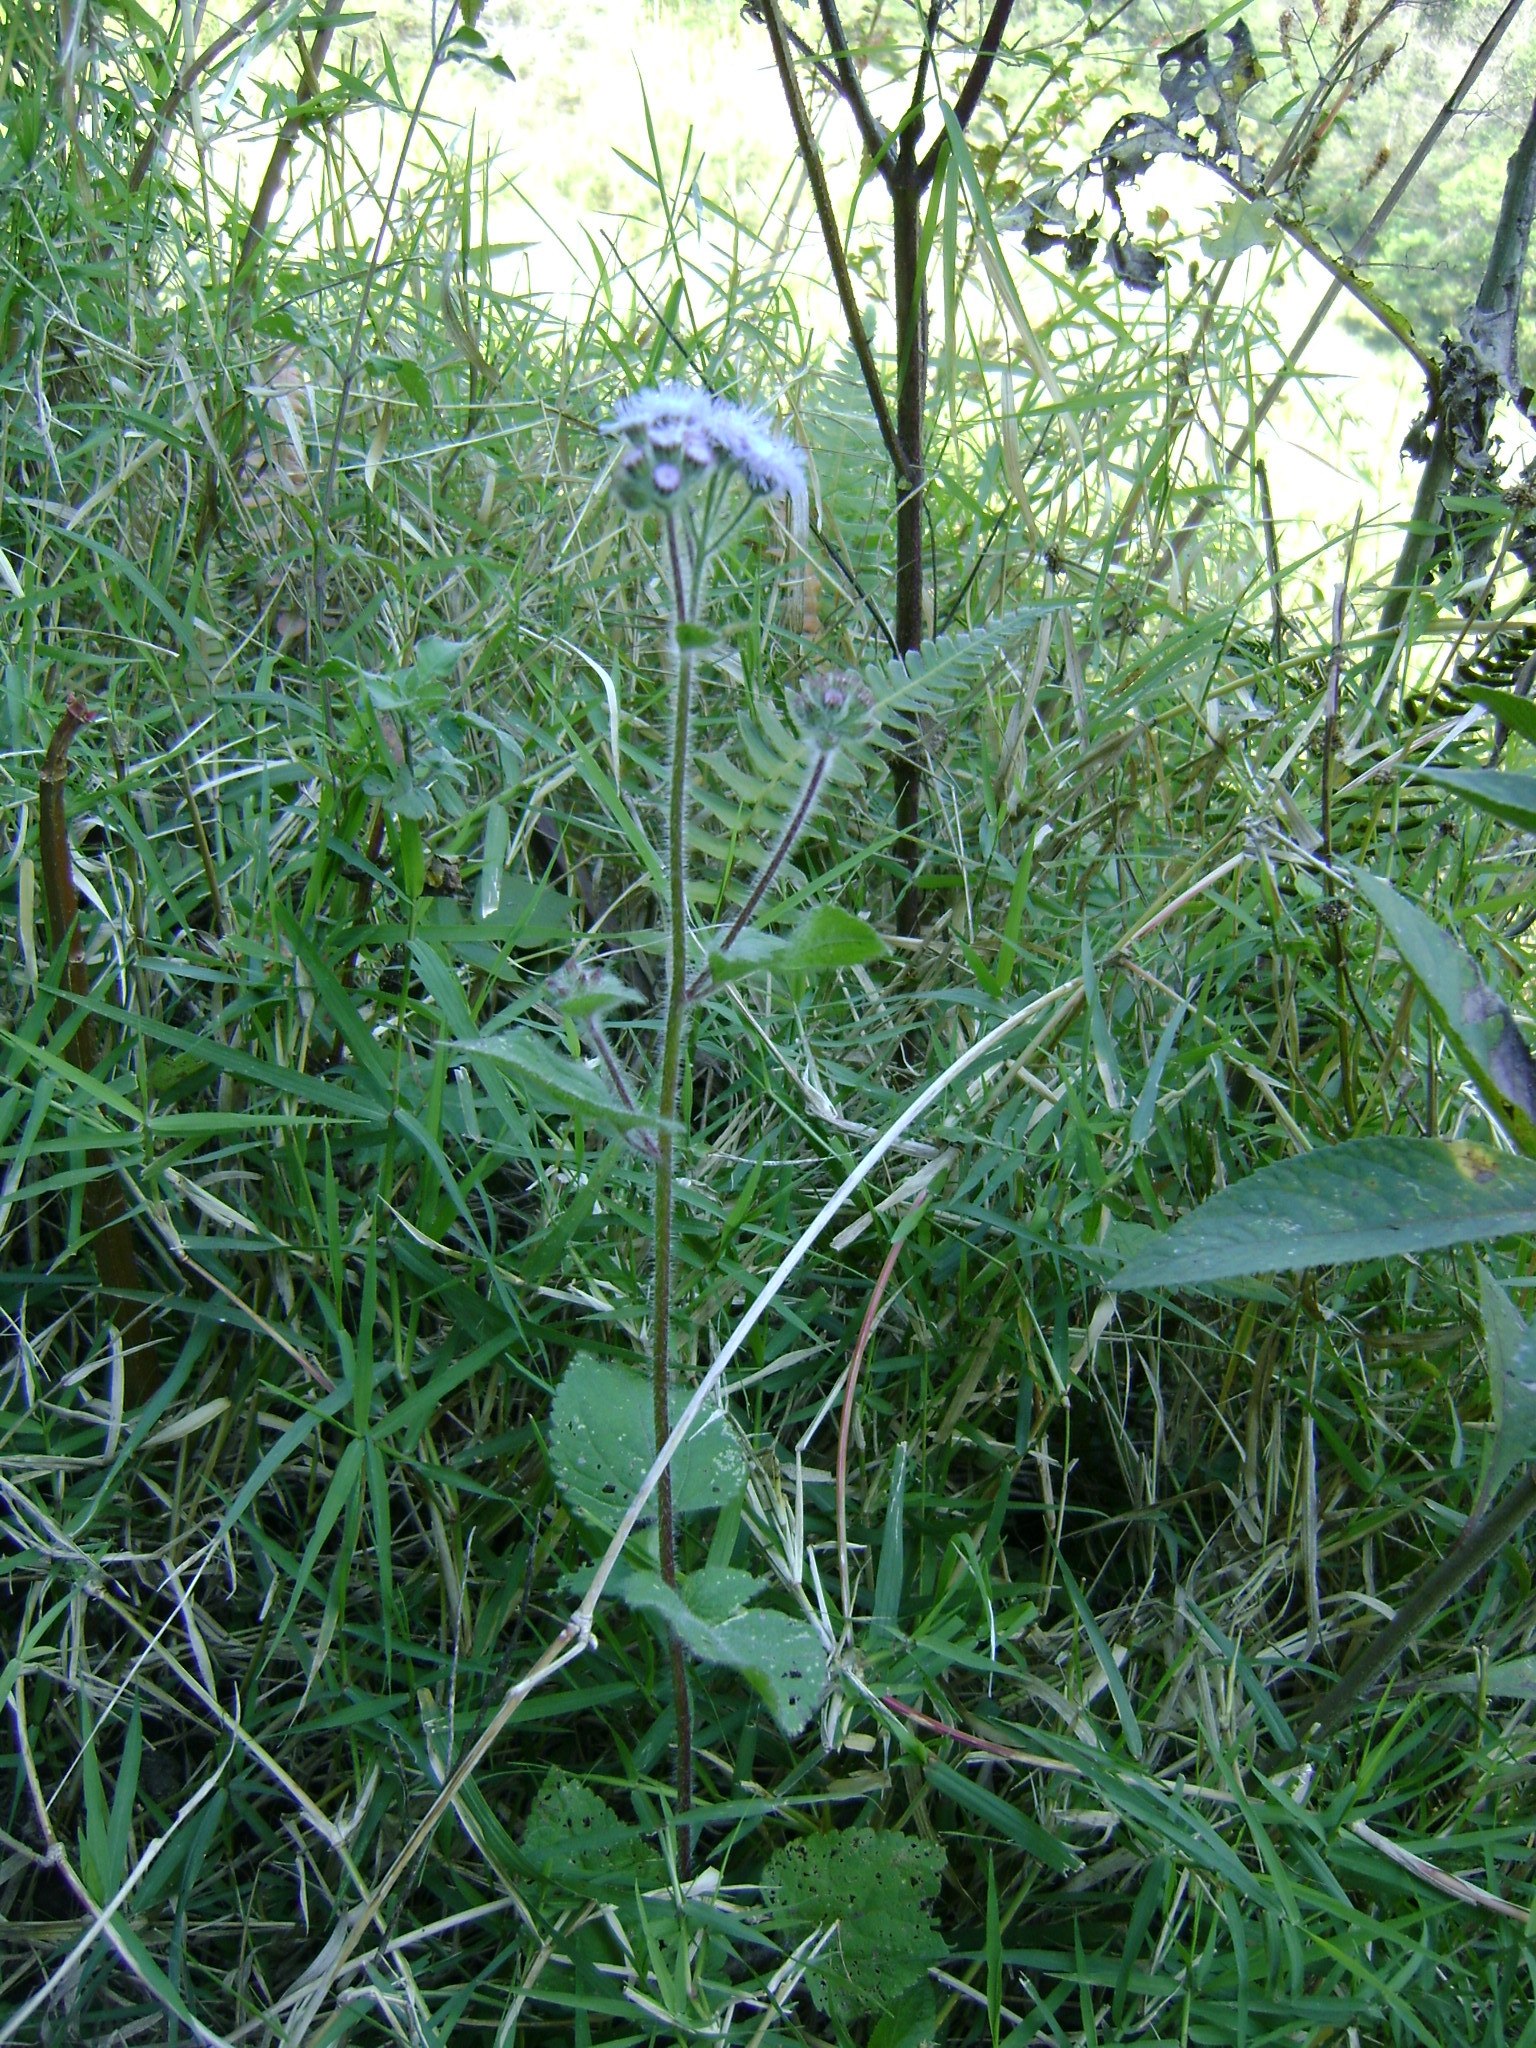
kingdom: Plantae
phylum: Tracheophyta
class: Magnoliopsida
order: Asterales
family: Asteraceae
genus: Ageratum
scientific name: Ageratum houstonianum
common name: Bluemink
